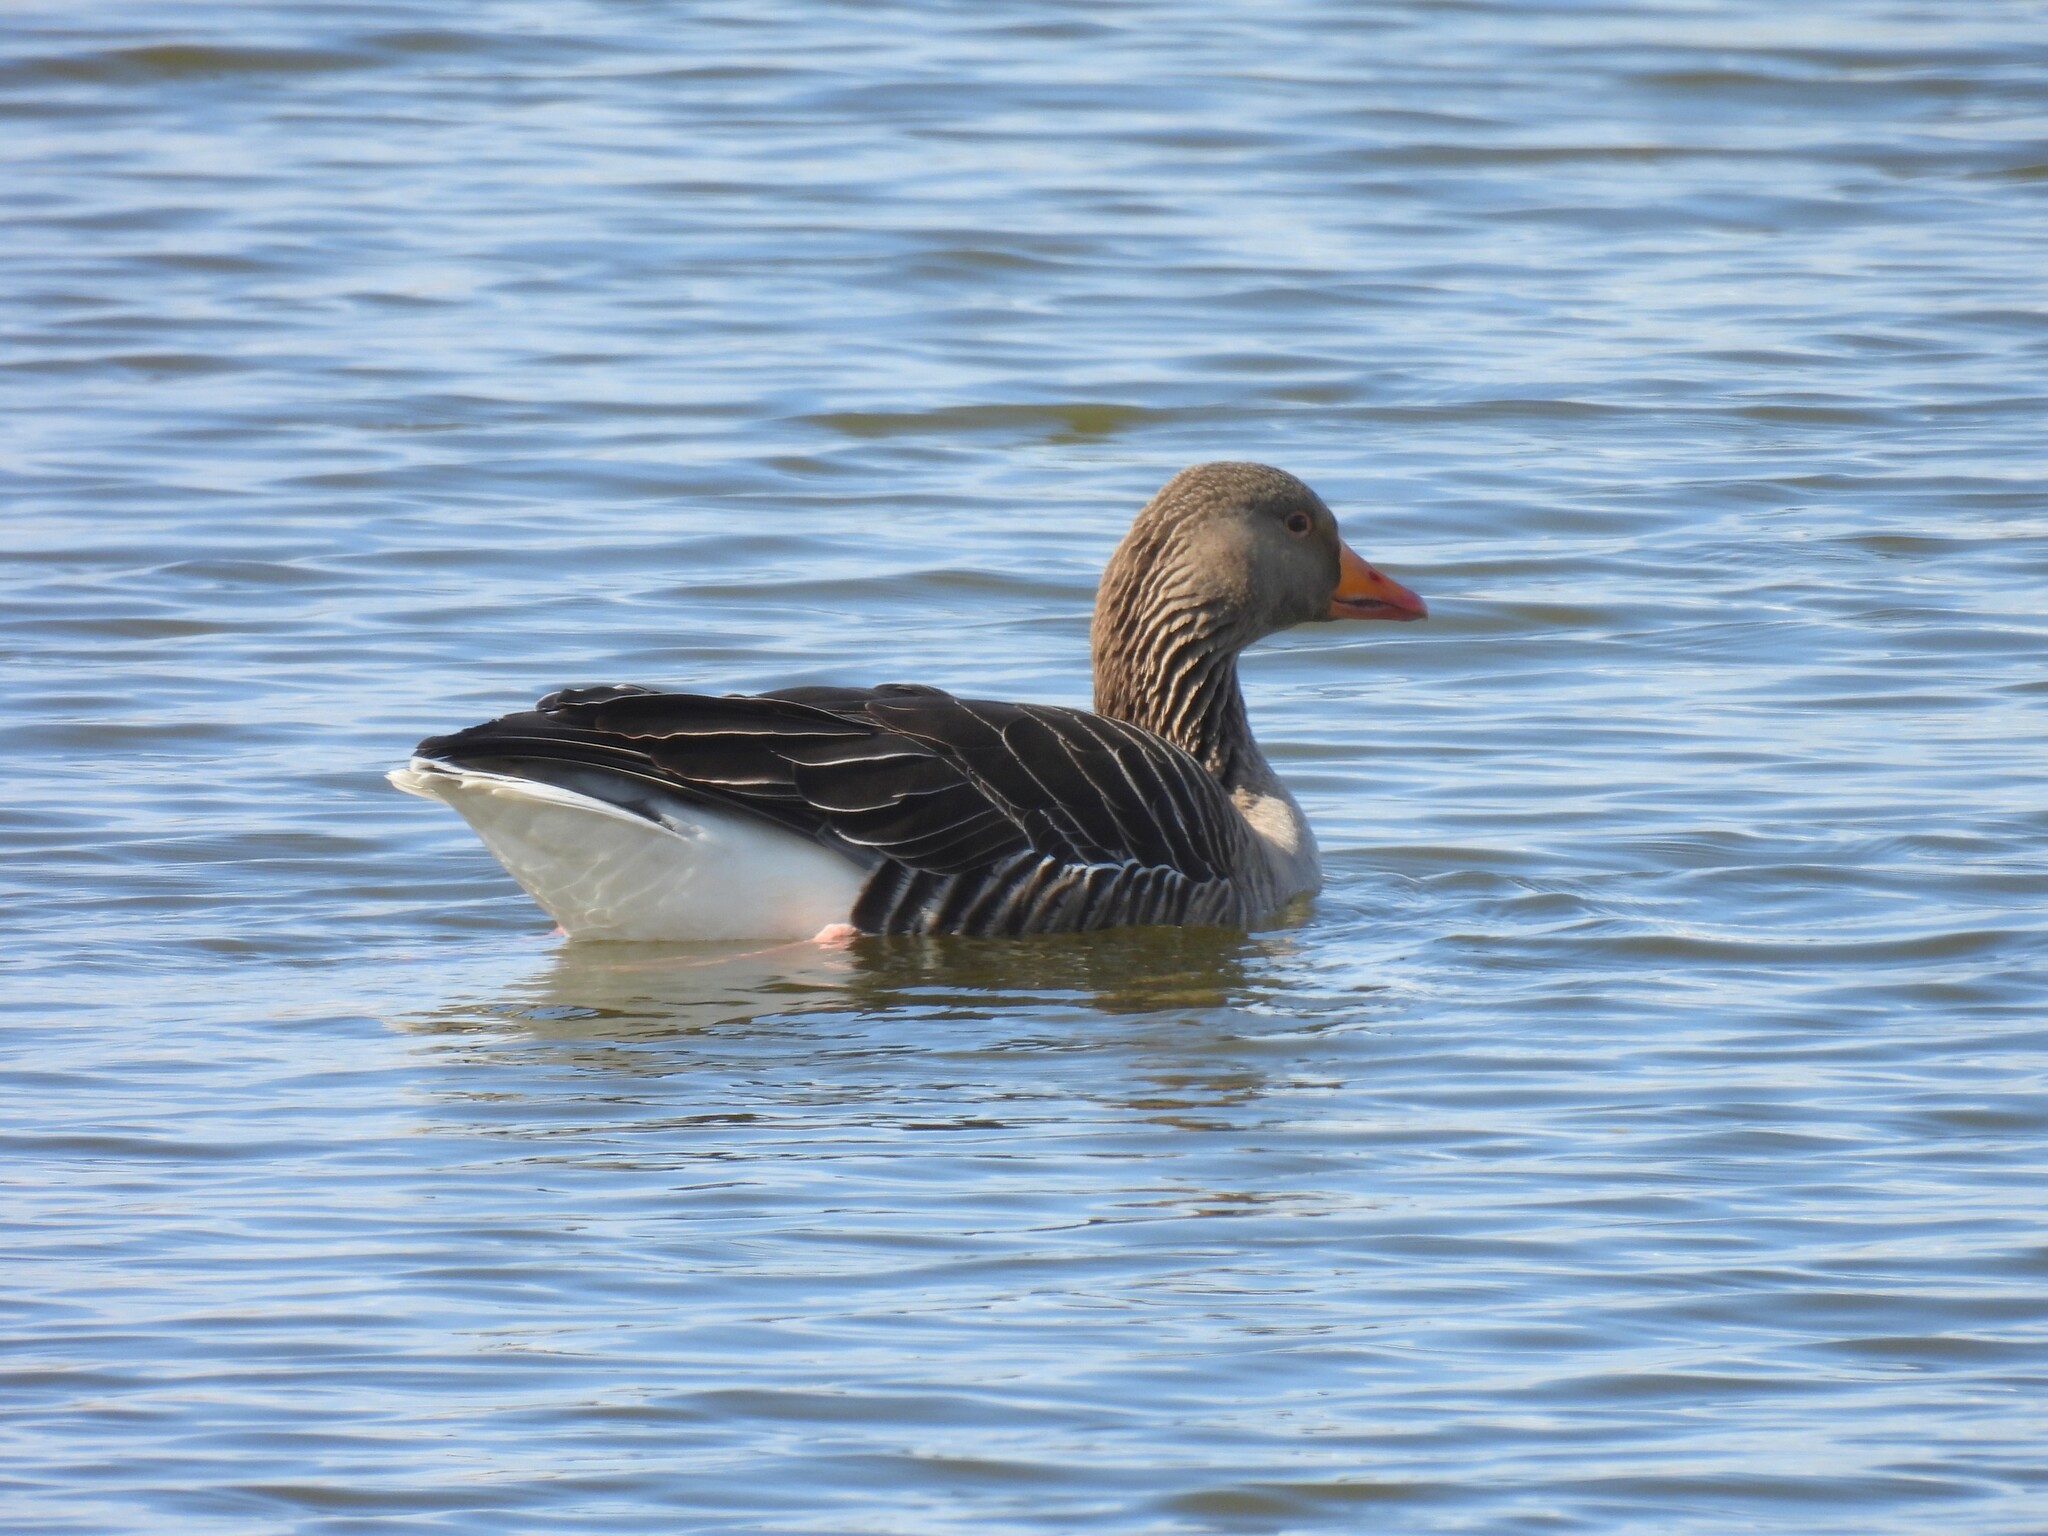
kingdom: Animalia
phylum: Chordata
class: Aves
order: Anseriformes
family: Anatidae
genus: Anser
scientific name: Anser anser
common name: Greylag goose
